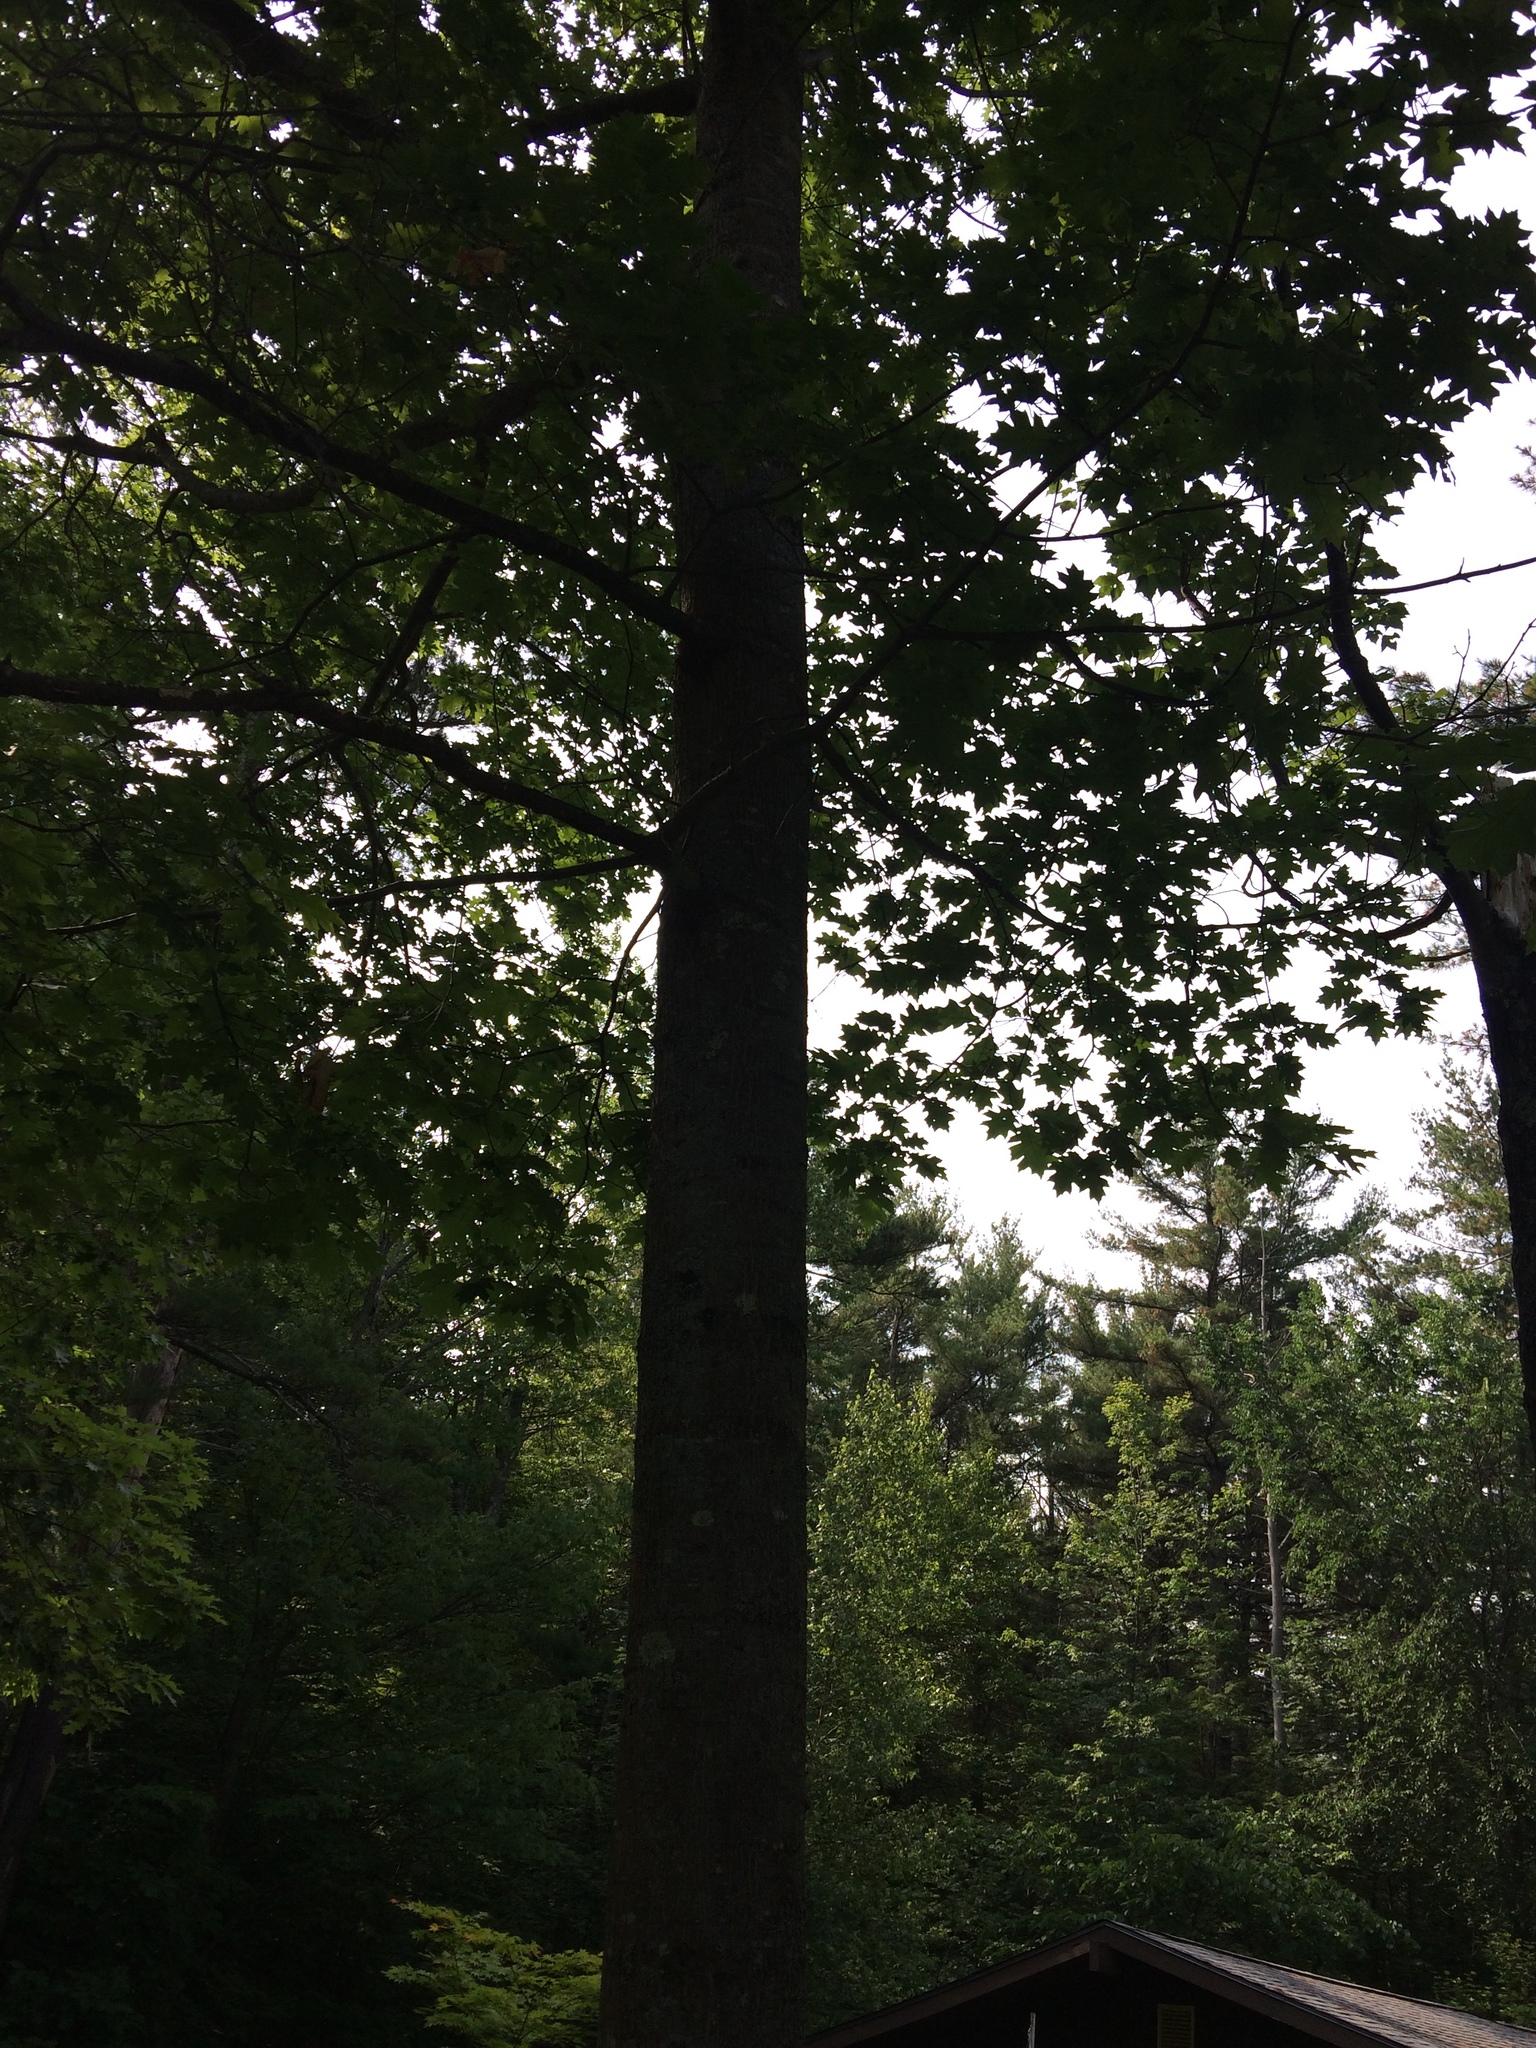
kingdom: Plantae
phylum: Tracheophyta
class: Magnoliopsida
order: Fagales
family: Fagaceae
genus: Quercus
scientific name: Quercus rubra
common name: Red oak
